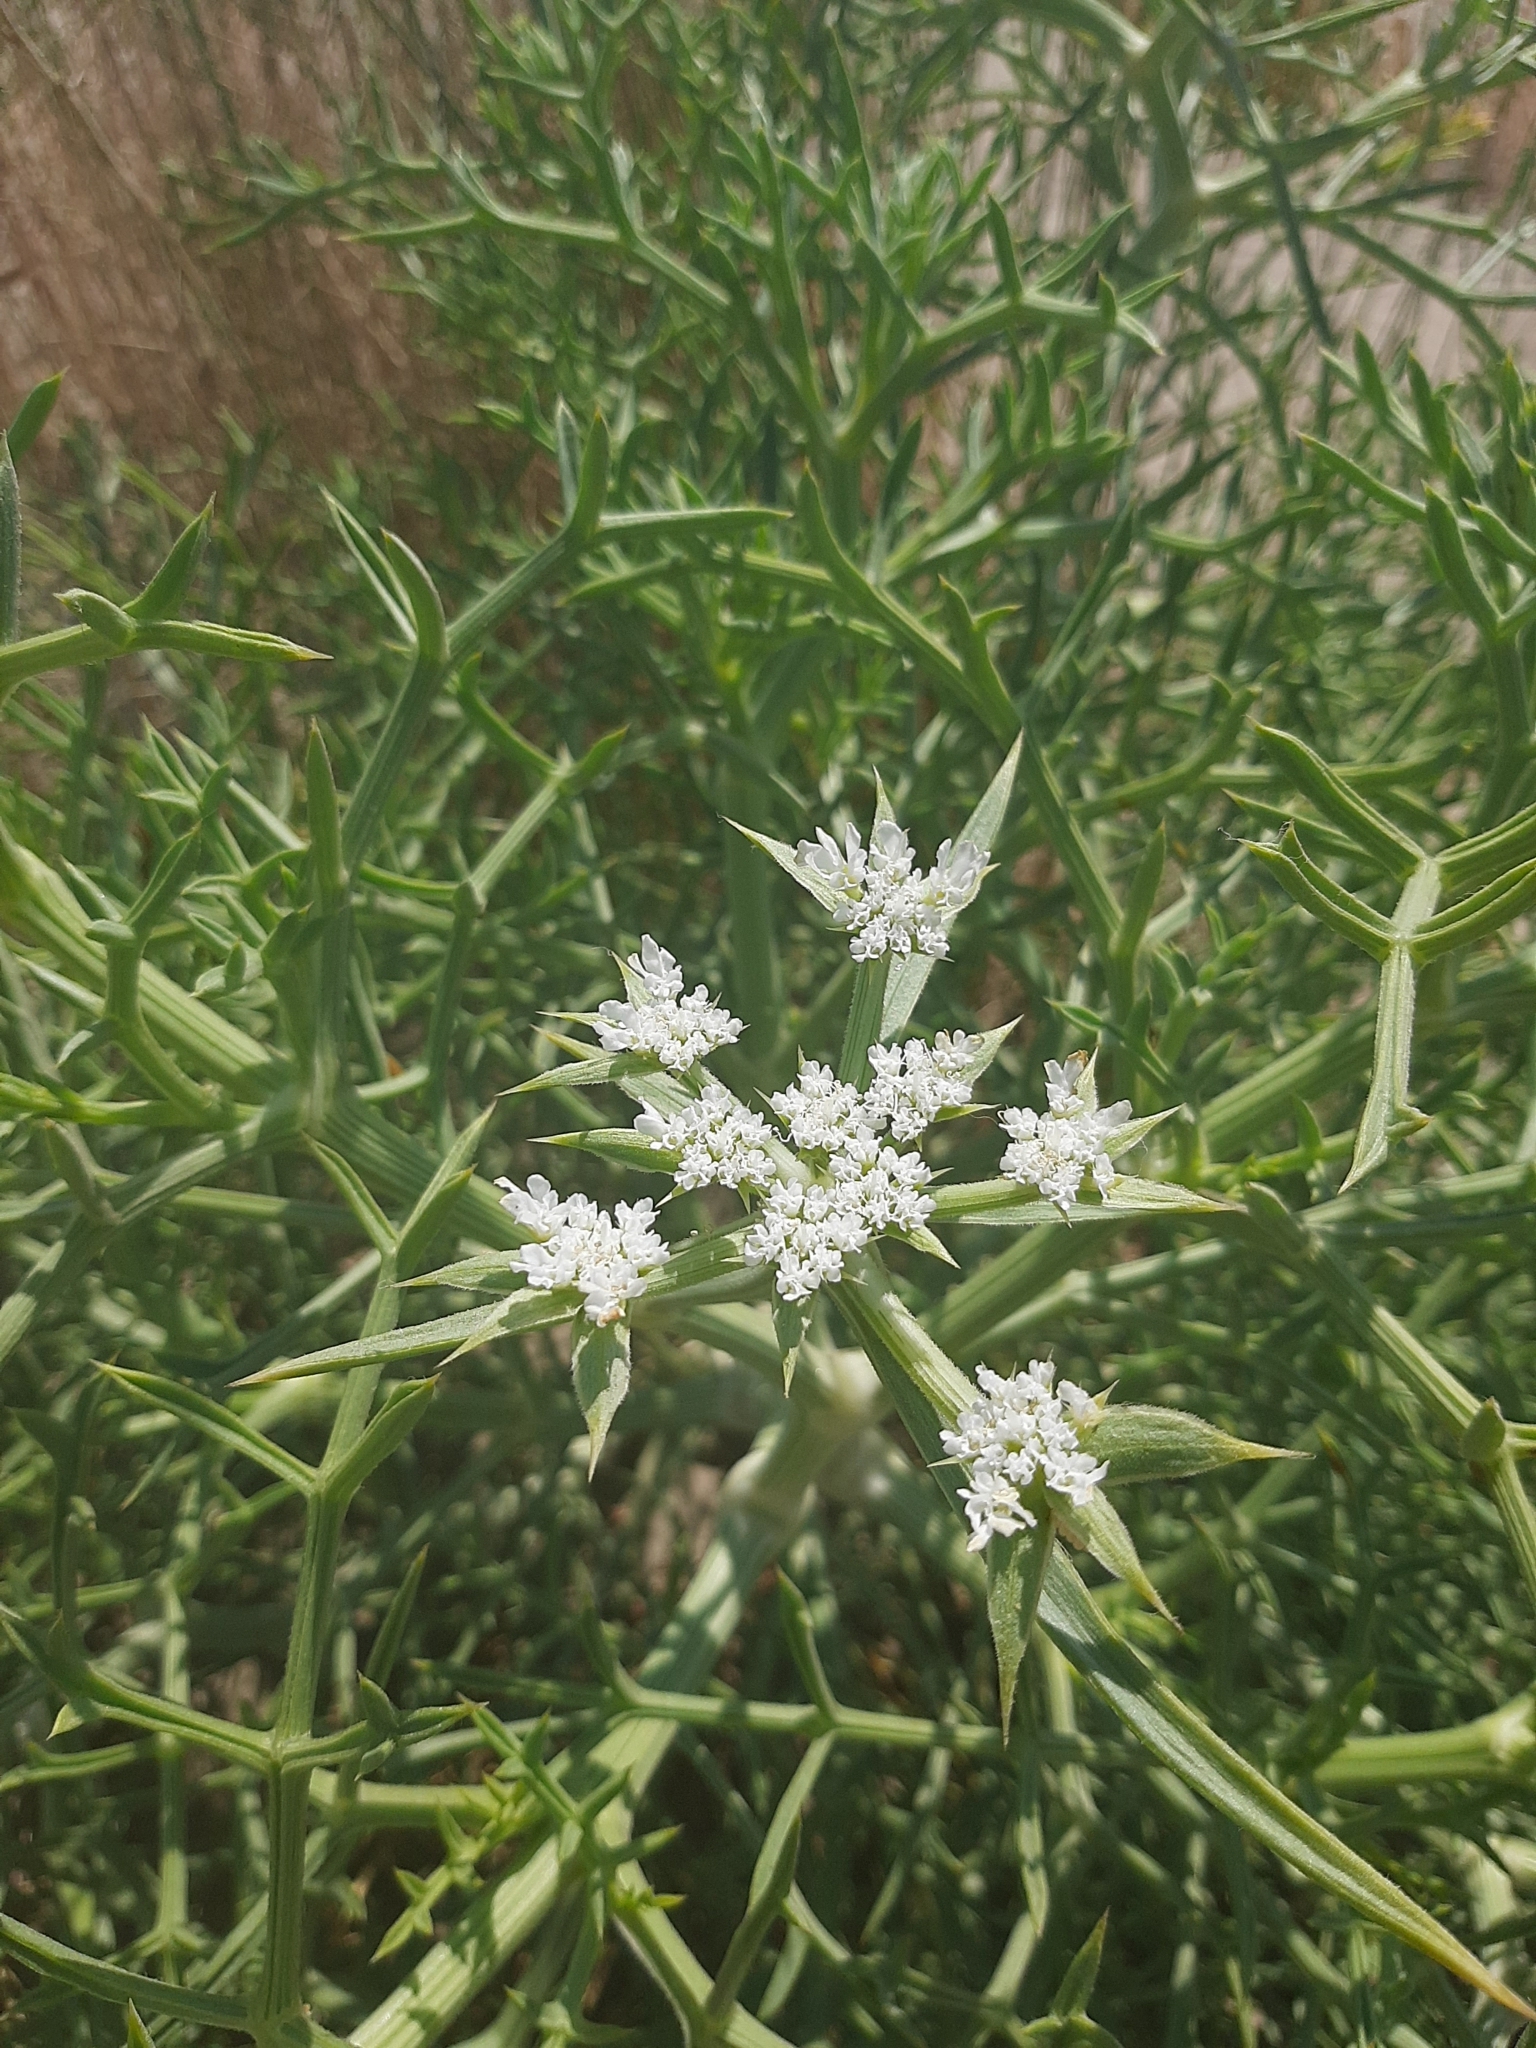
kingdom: Plantae
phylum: Tracheophyta
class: Magnoliopsida
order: Apiales
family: Apiaceae
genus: Echinophora
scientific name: Echinophora spinosa
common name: Prickly samphire
